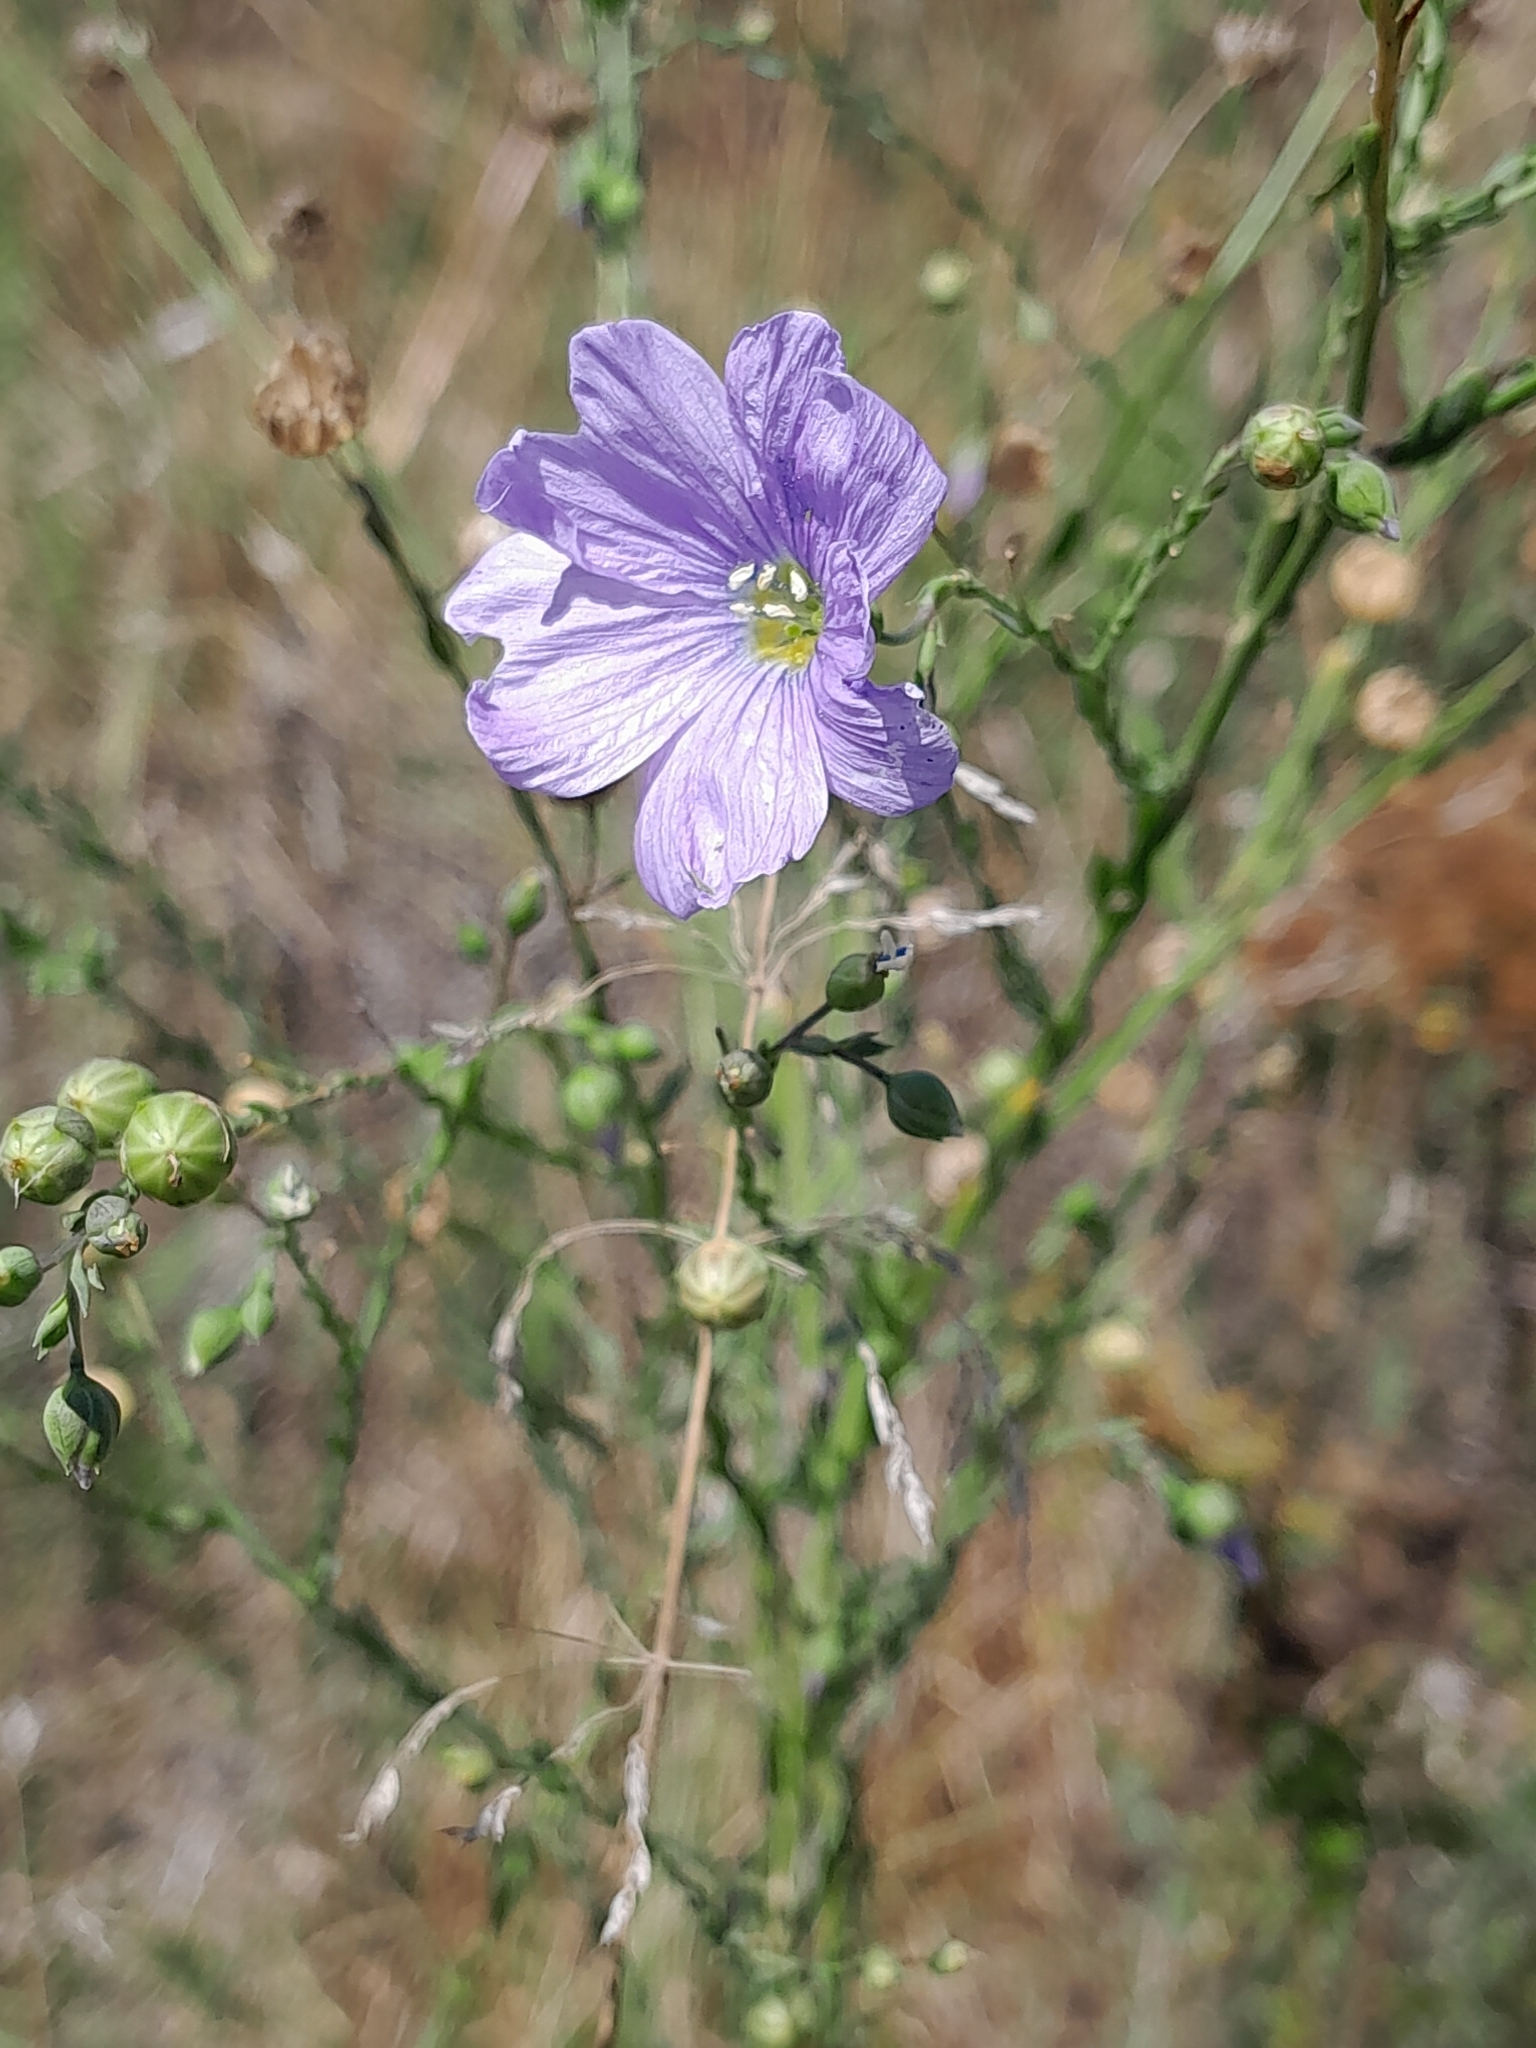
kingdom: Plantae
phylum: Tracheophyta
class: Magnoliopsida
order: Malpighiales
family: Linaceae
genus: Linum
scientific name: Linum perenne
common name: Blue flax
